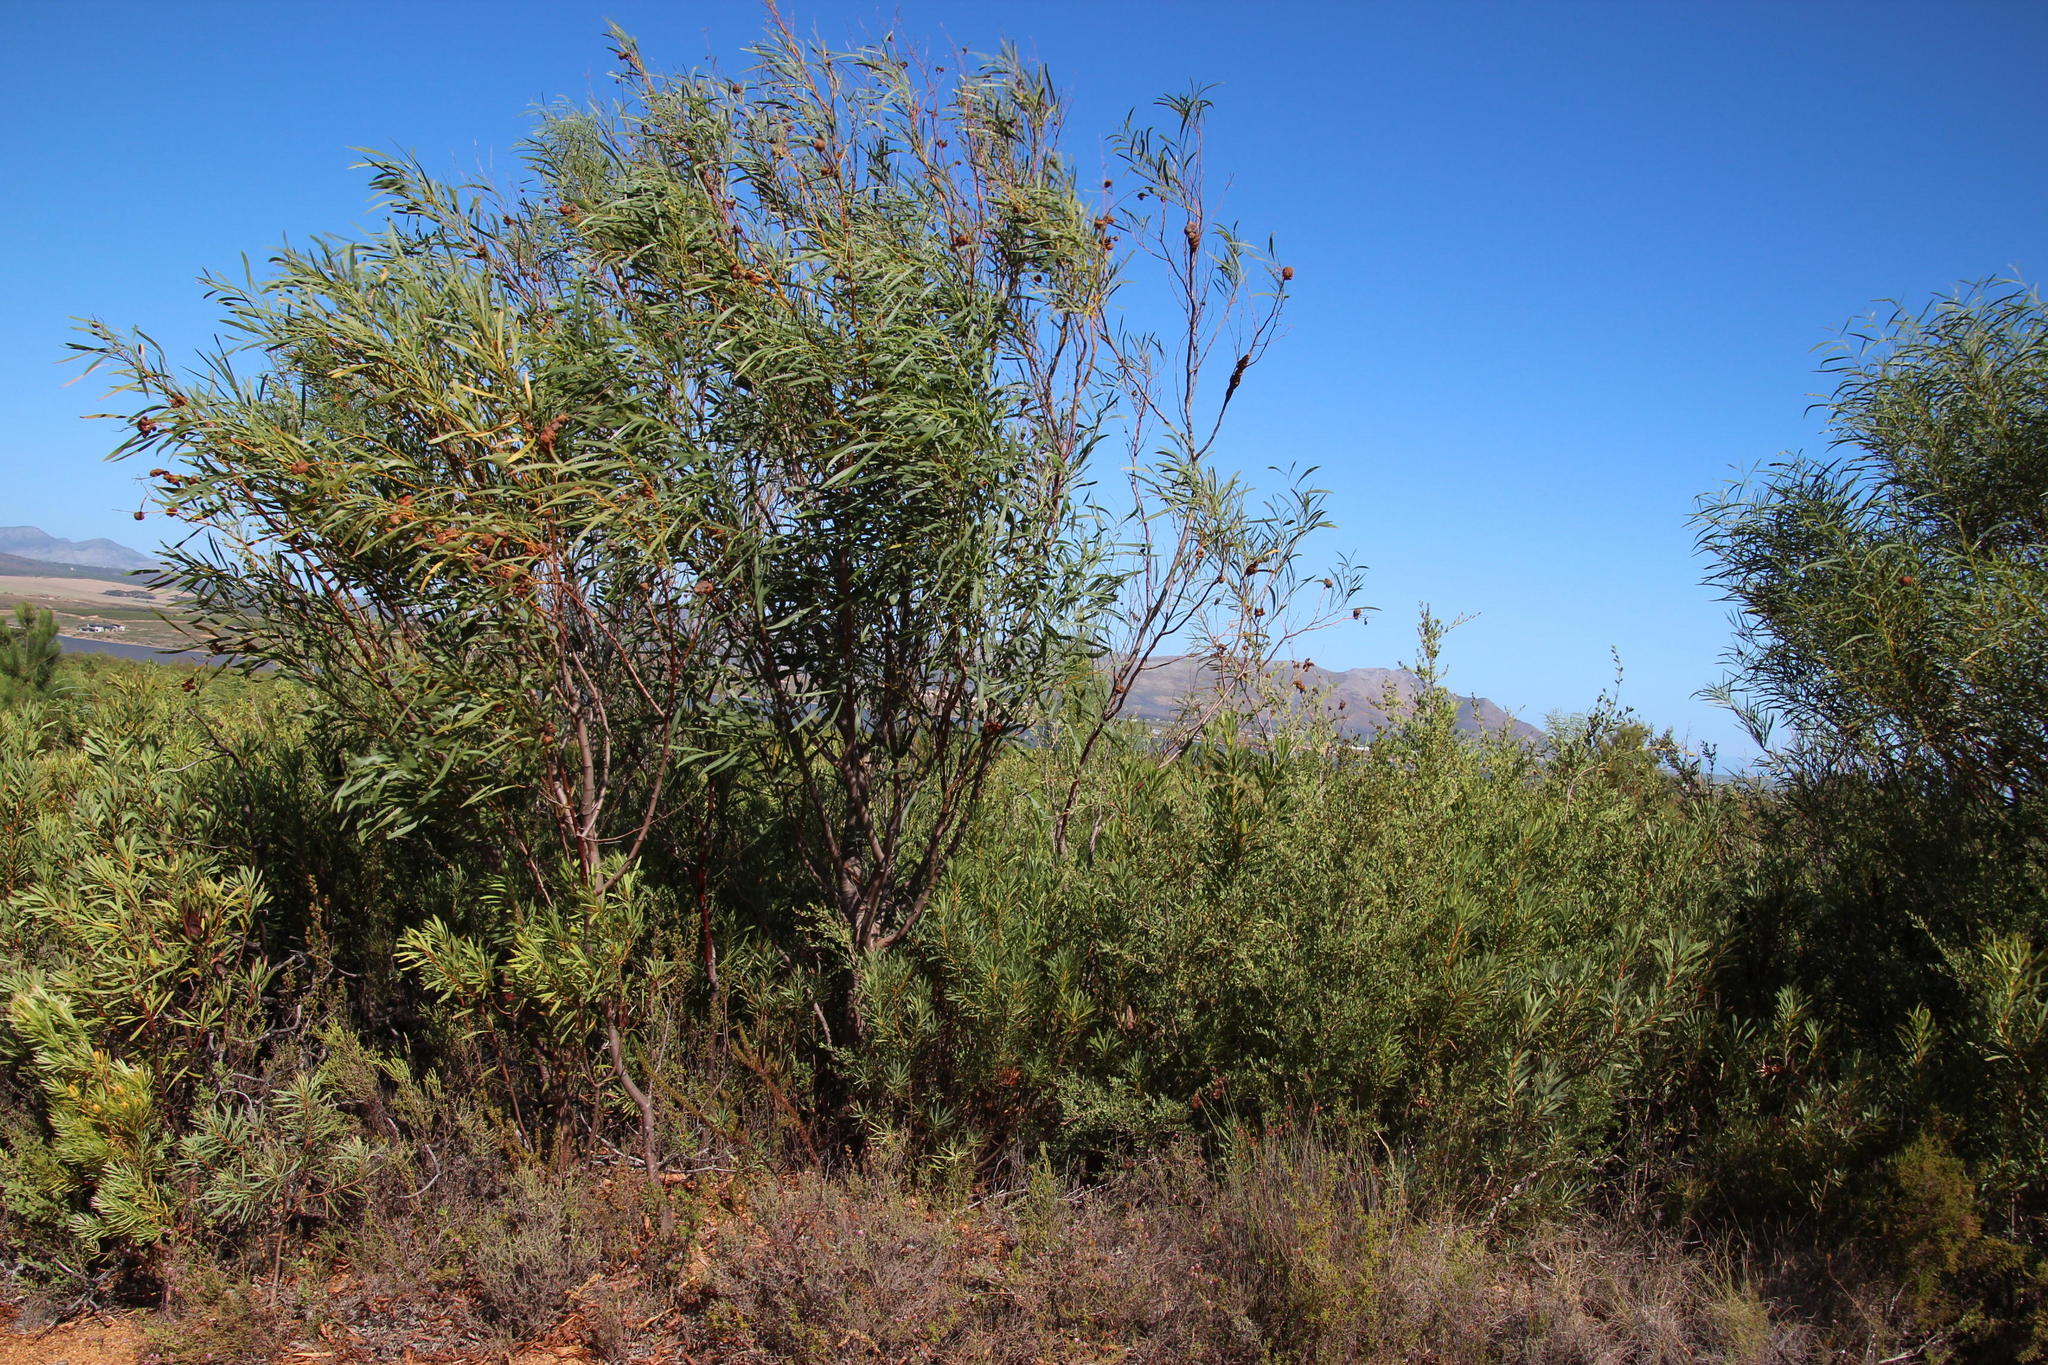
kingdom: Plantae
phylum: Tracheophyta
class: Magnoliopsida
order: Fabales
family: Fabaceae
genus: Acacia
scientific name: Acacia saligna
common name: Orange wattle
